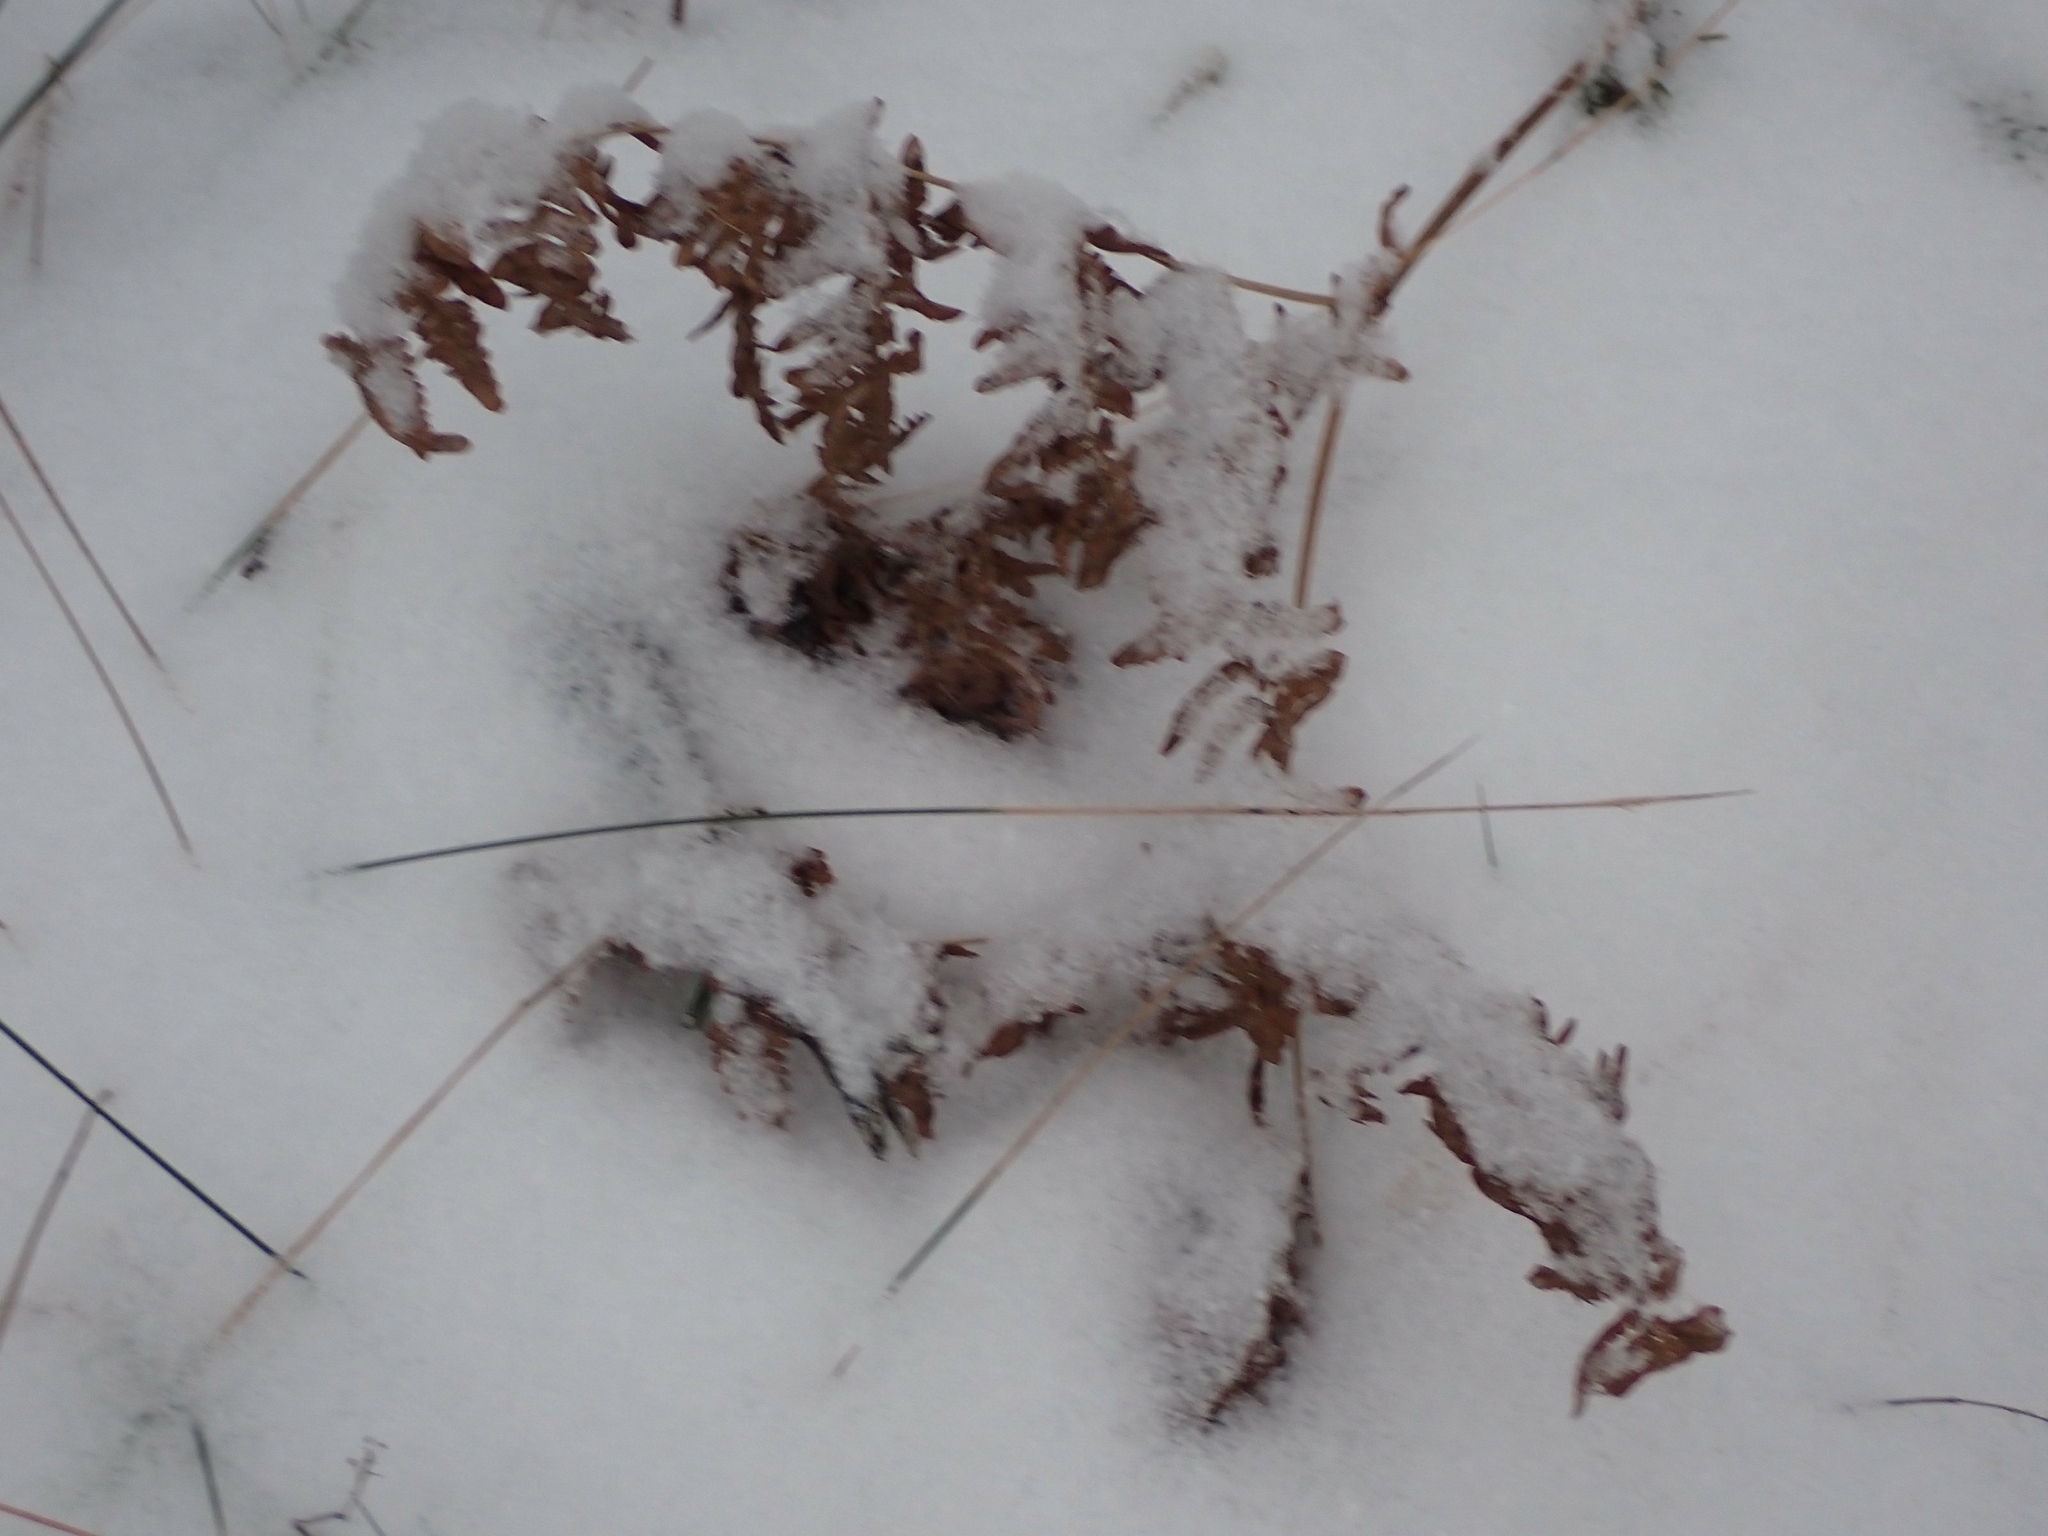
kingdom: Plantae
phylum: Tracheophyta
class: Polypodiopsida
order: Polypodiales
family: Dennstaedtiaceae
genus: Pteridium
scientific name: Pteridium aquilinum
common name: Bracken
